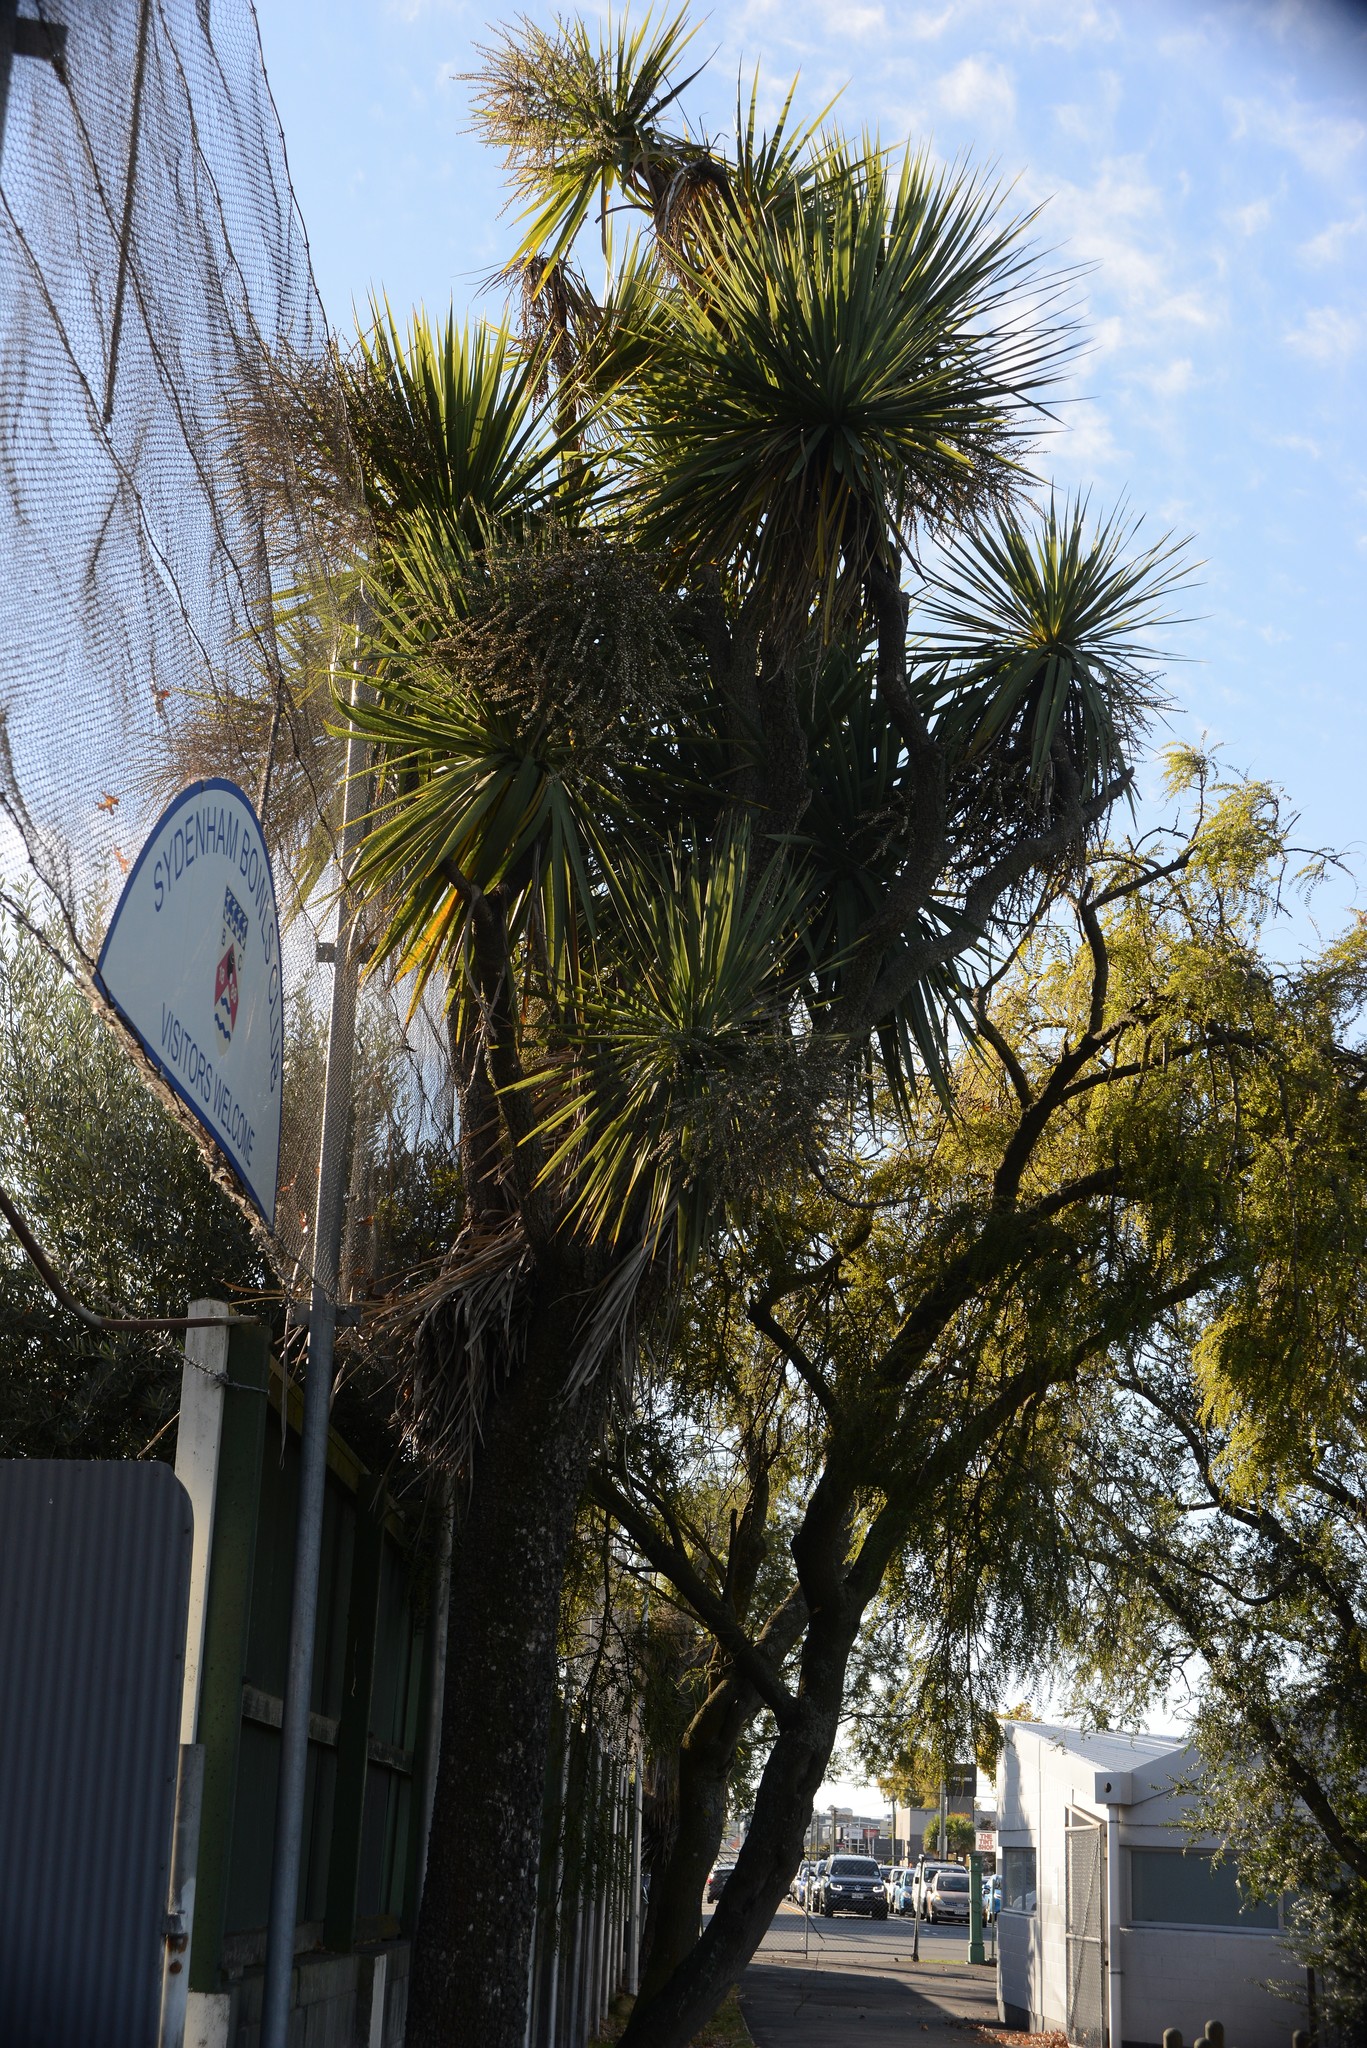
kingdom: Plantae
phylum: Tracheophyta
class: Liliopsida
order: Asparagales
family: Asparagaceae
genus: Cordyline
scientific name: Cordyline australis
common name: Cabbage-palm
